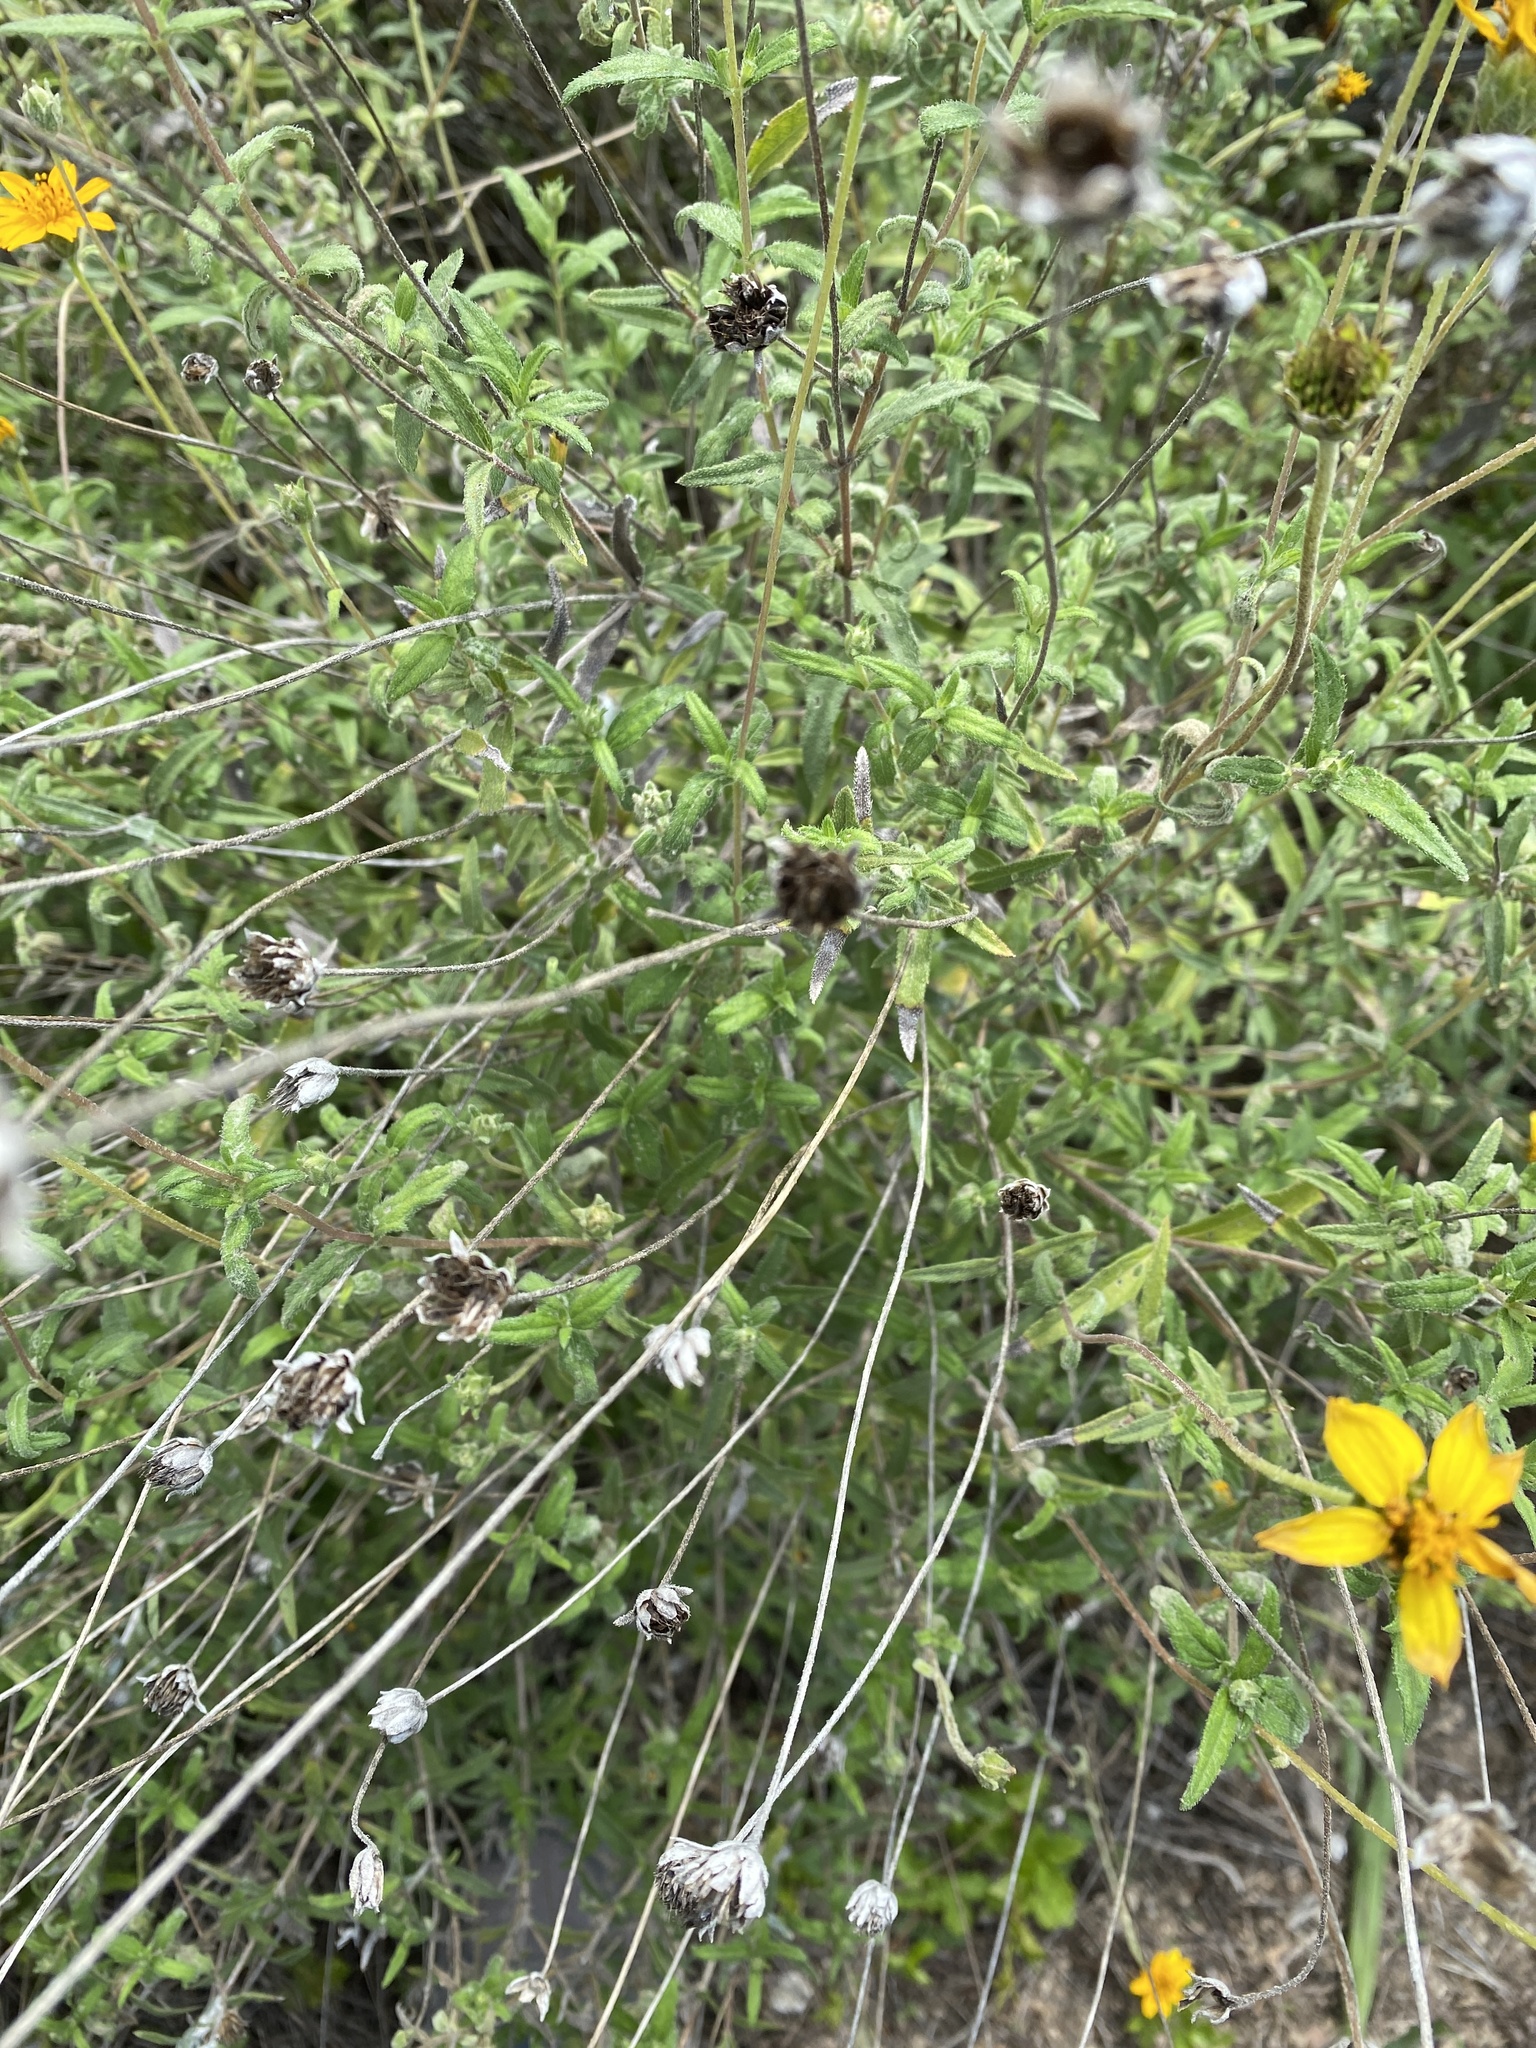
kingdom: Plantae
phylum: Tracheophyta
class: Magnoliopsida
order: Asterales
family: Asteraceae
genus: Wedelia
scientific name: Wedelia acapulcensis
